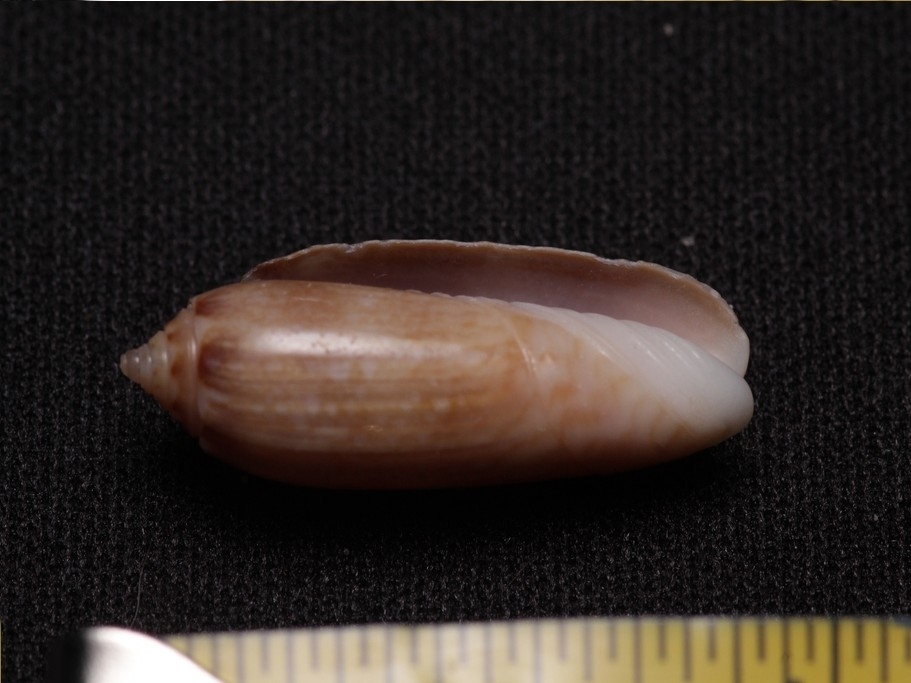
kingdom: Animalia
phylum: Mollusca
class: Gastropoda
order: Neogastropoda
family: Olividae
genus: Oliva
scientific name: Oliva sayana
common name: Lettered olive
